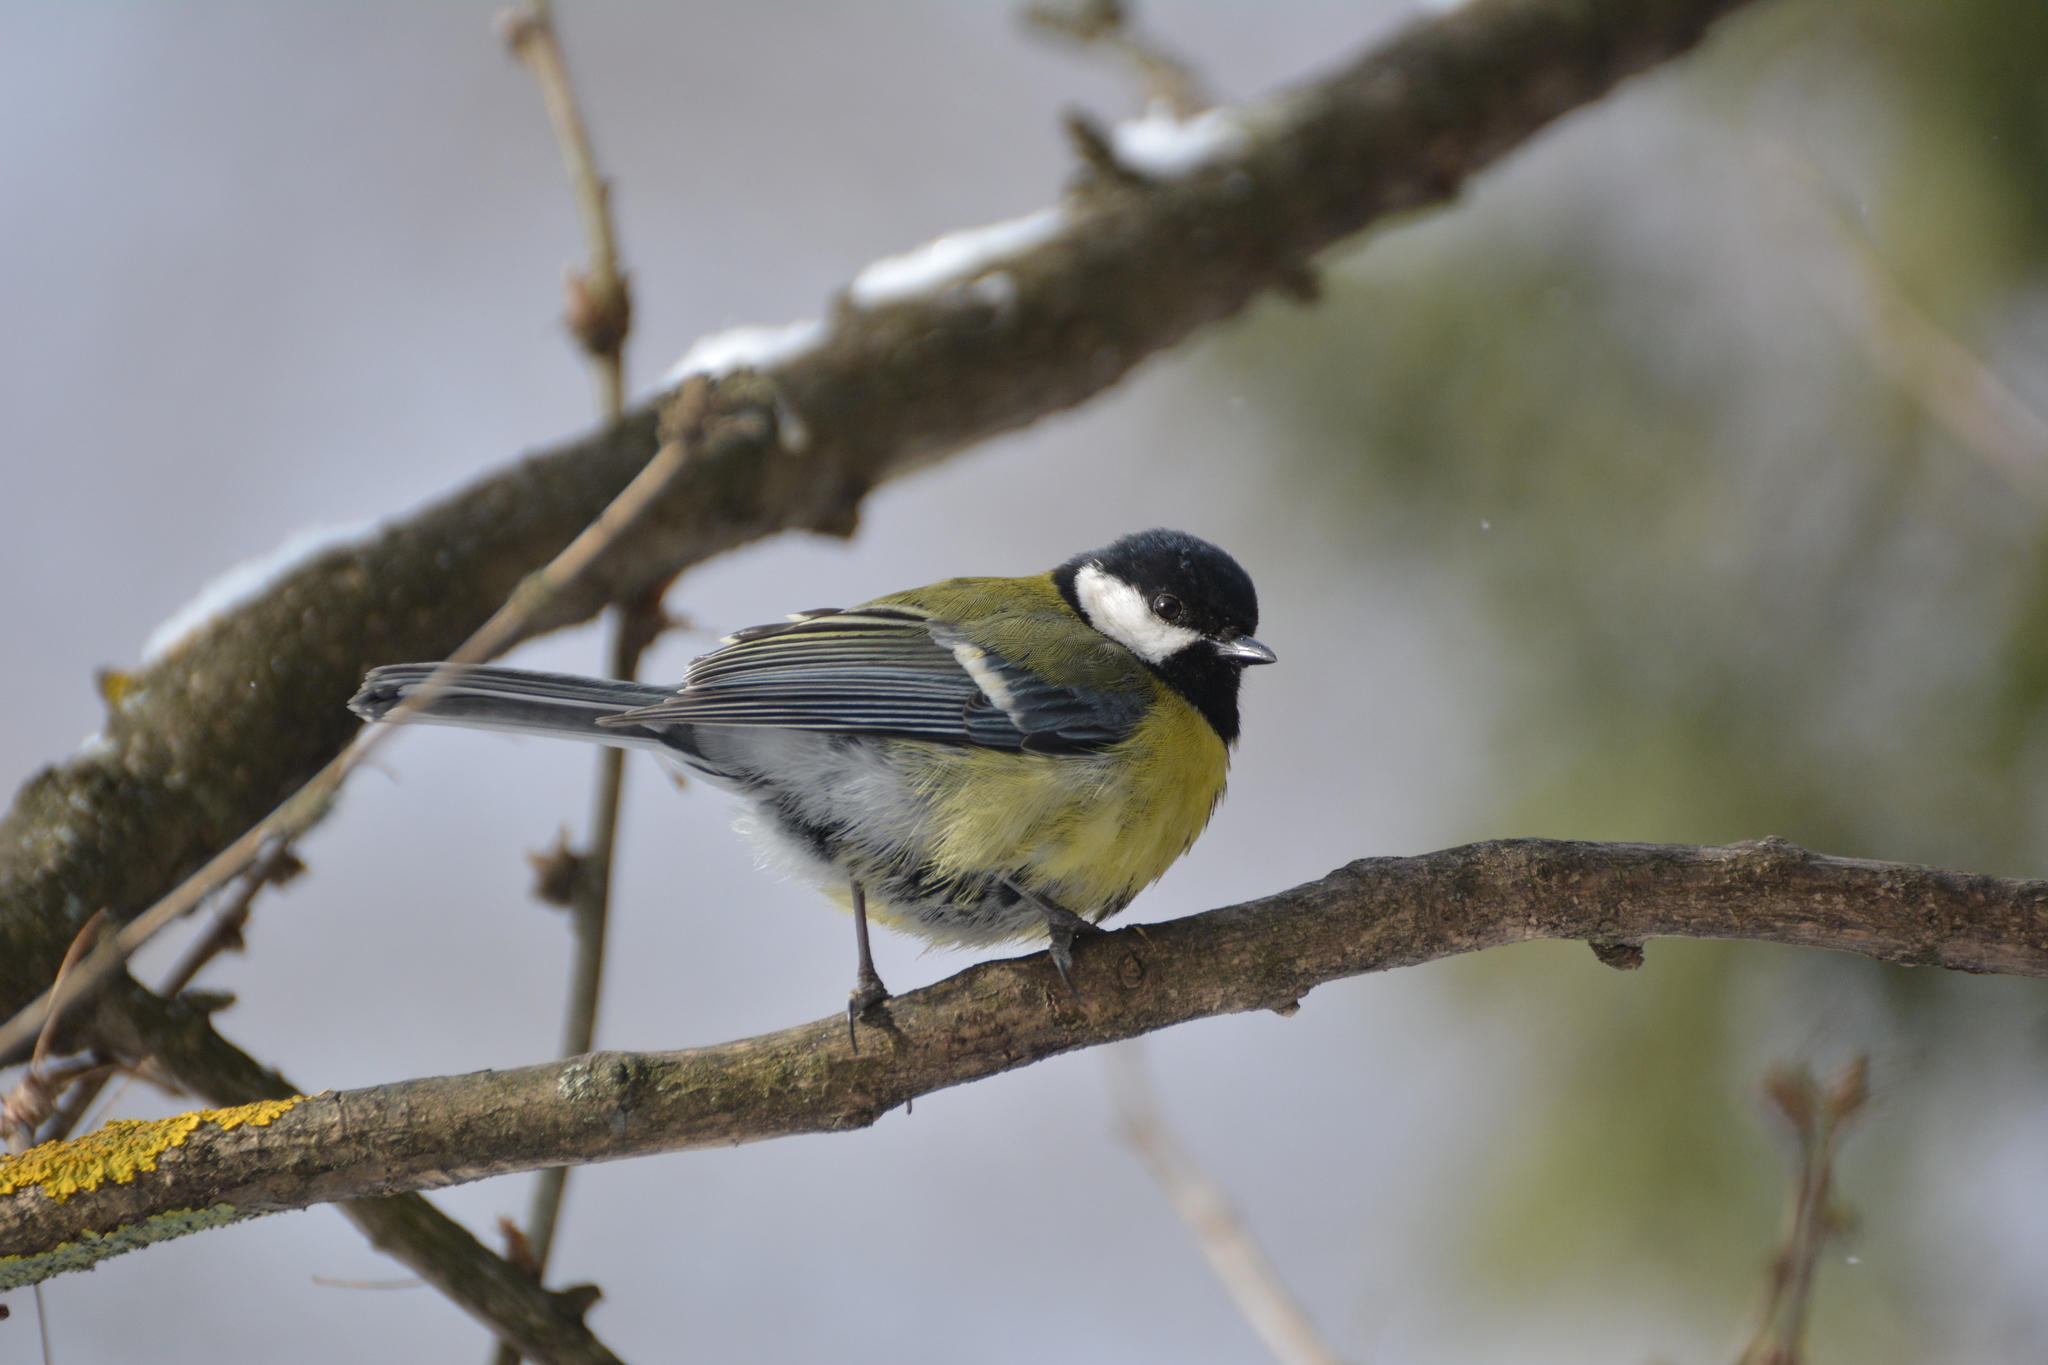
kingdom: Animalia
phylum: Chordata
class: Aves
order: Passeriformes
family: Paridae
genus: Parus
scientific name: Parus major
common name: Great tit
